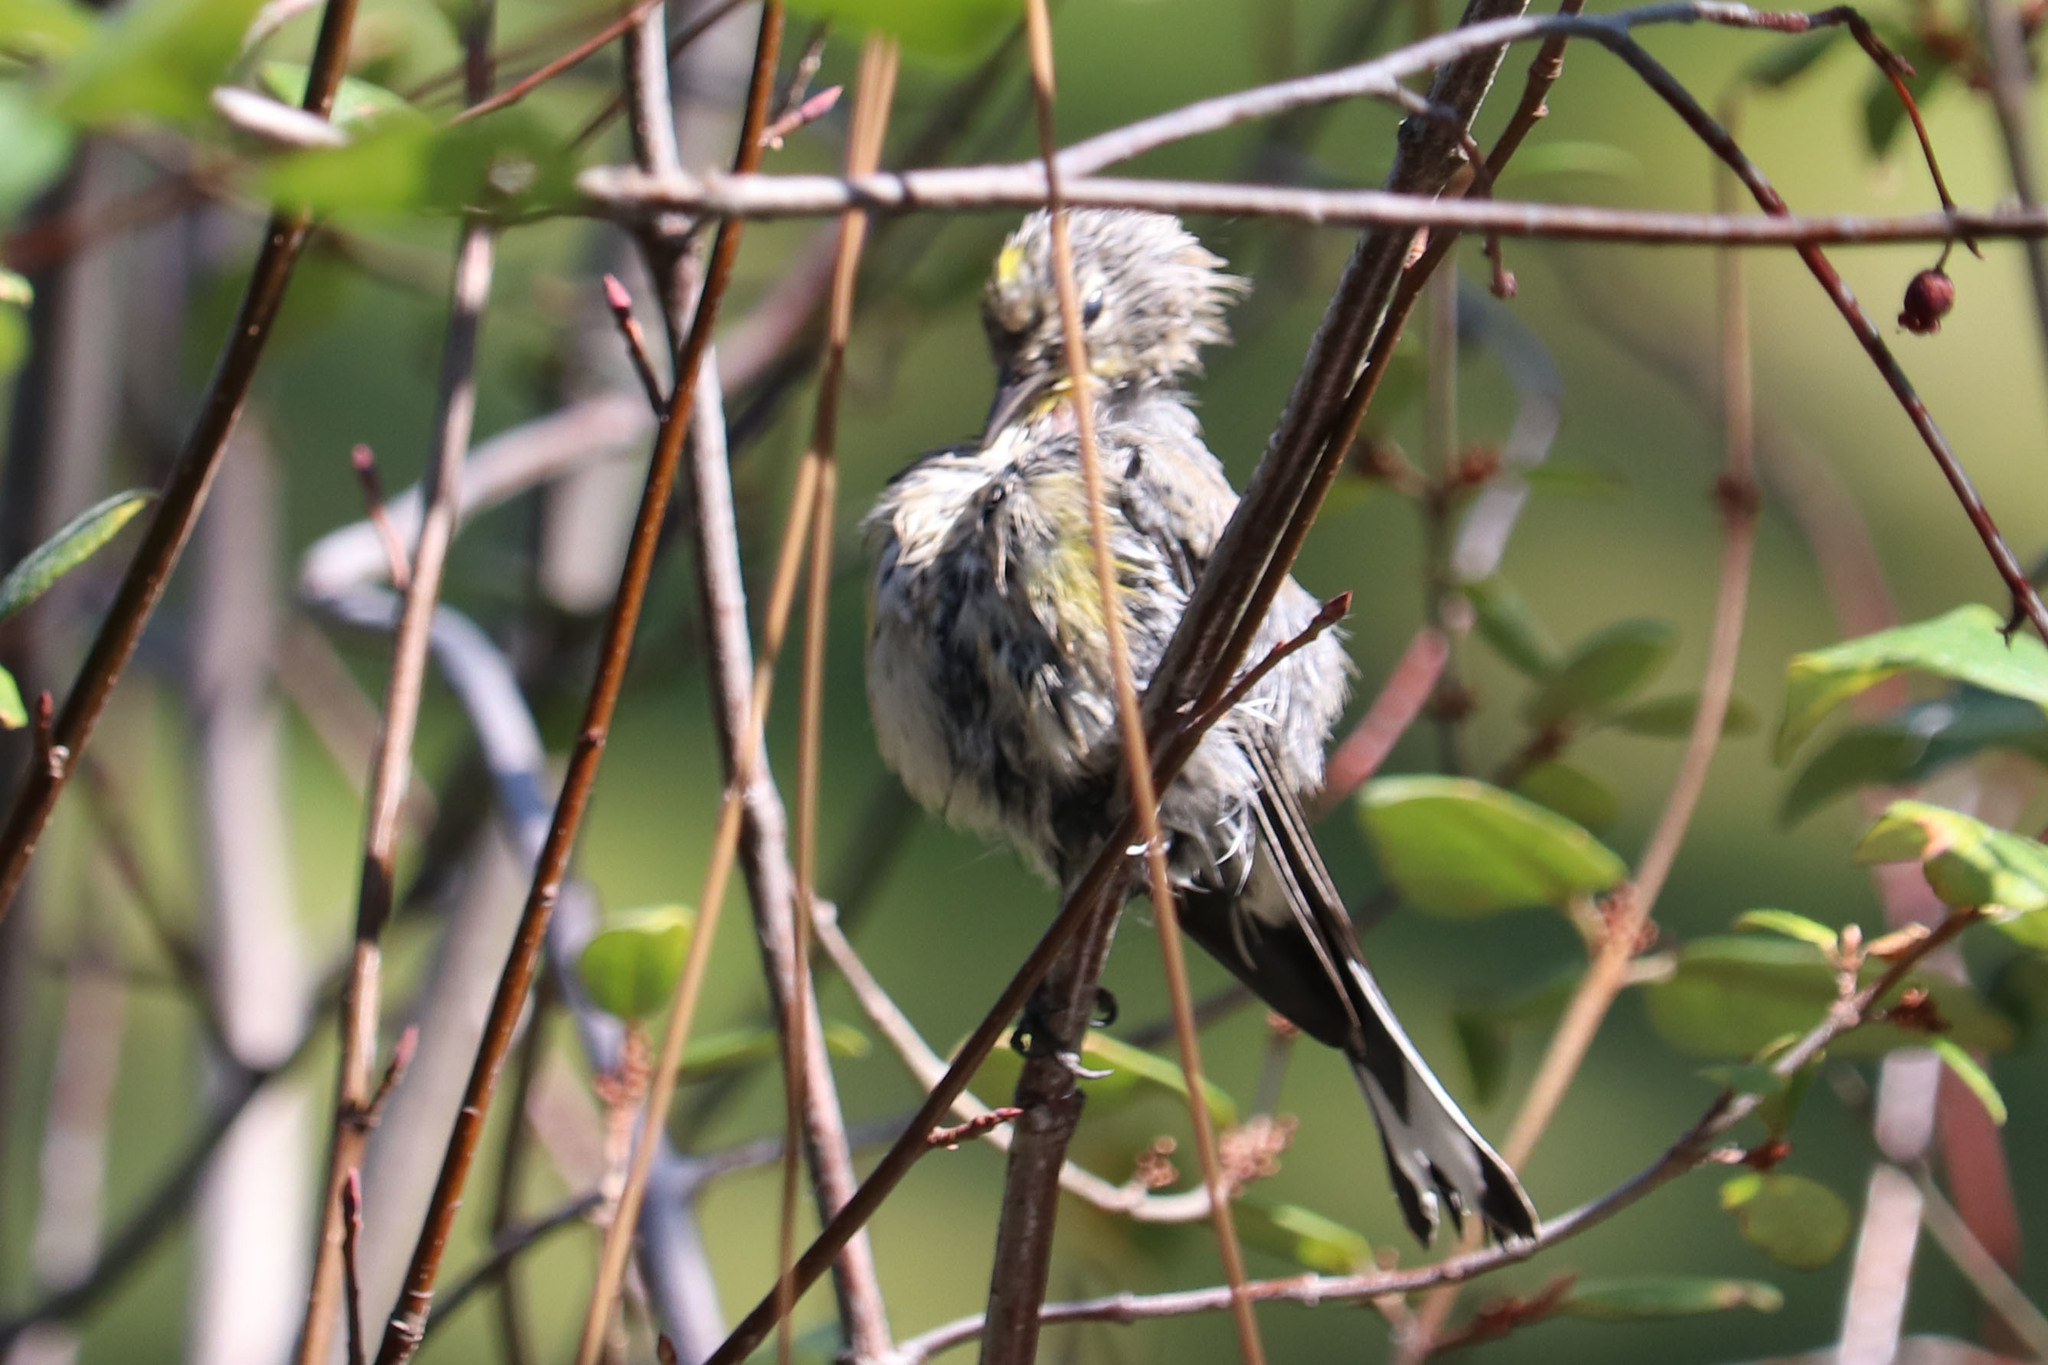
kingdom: Animalia
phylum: Chordata
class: Aves
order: Passeriformes
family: Parulidae
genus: Setophaga
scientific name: Setophaga coronata
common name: Myrtle warbler
